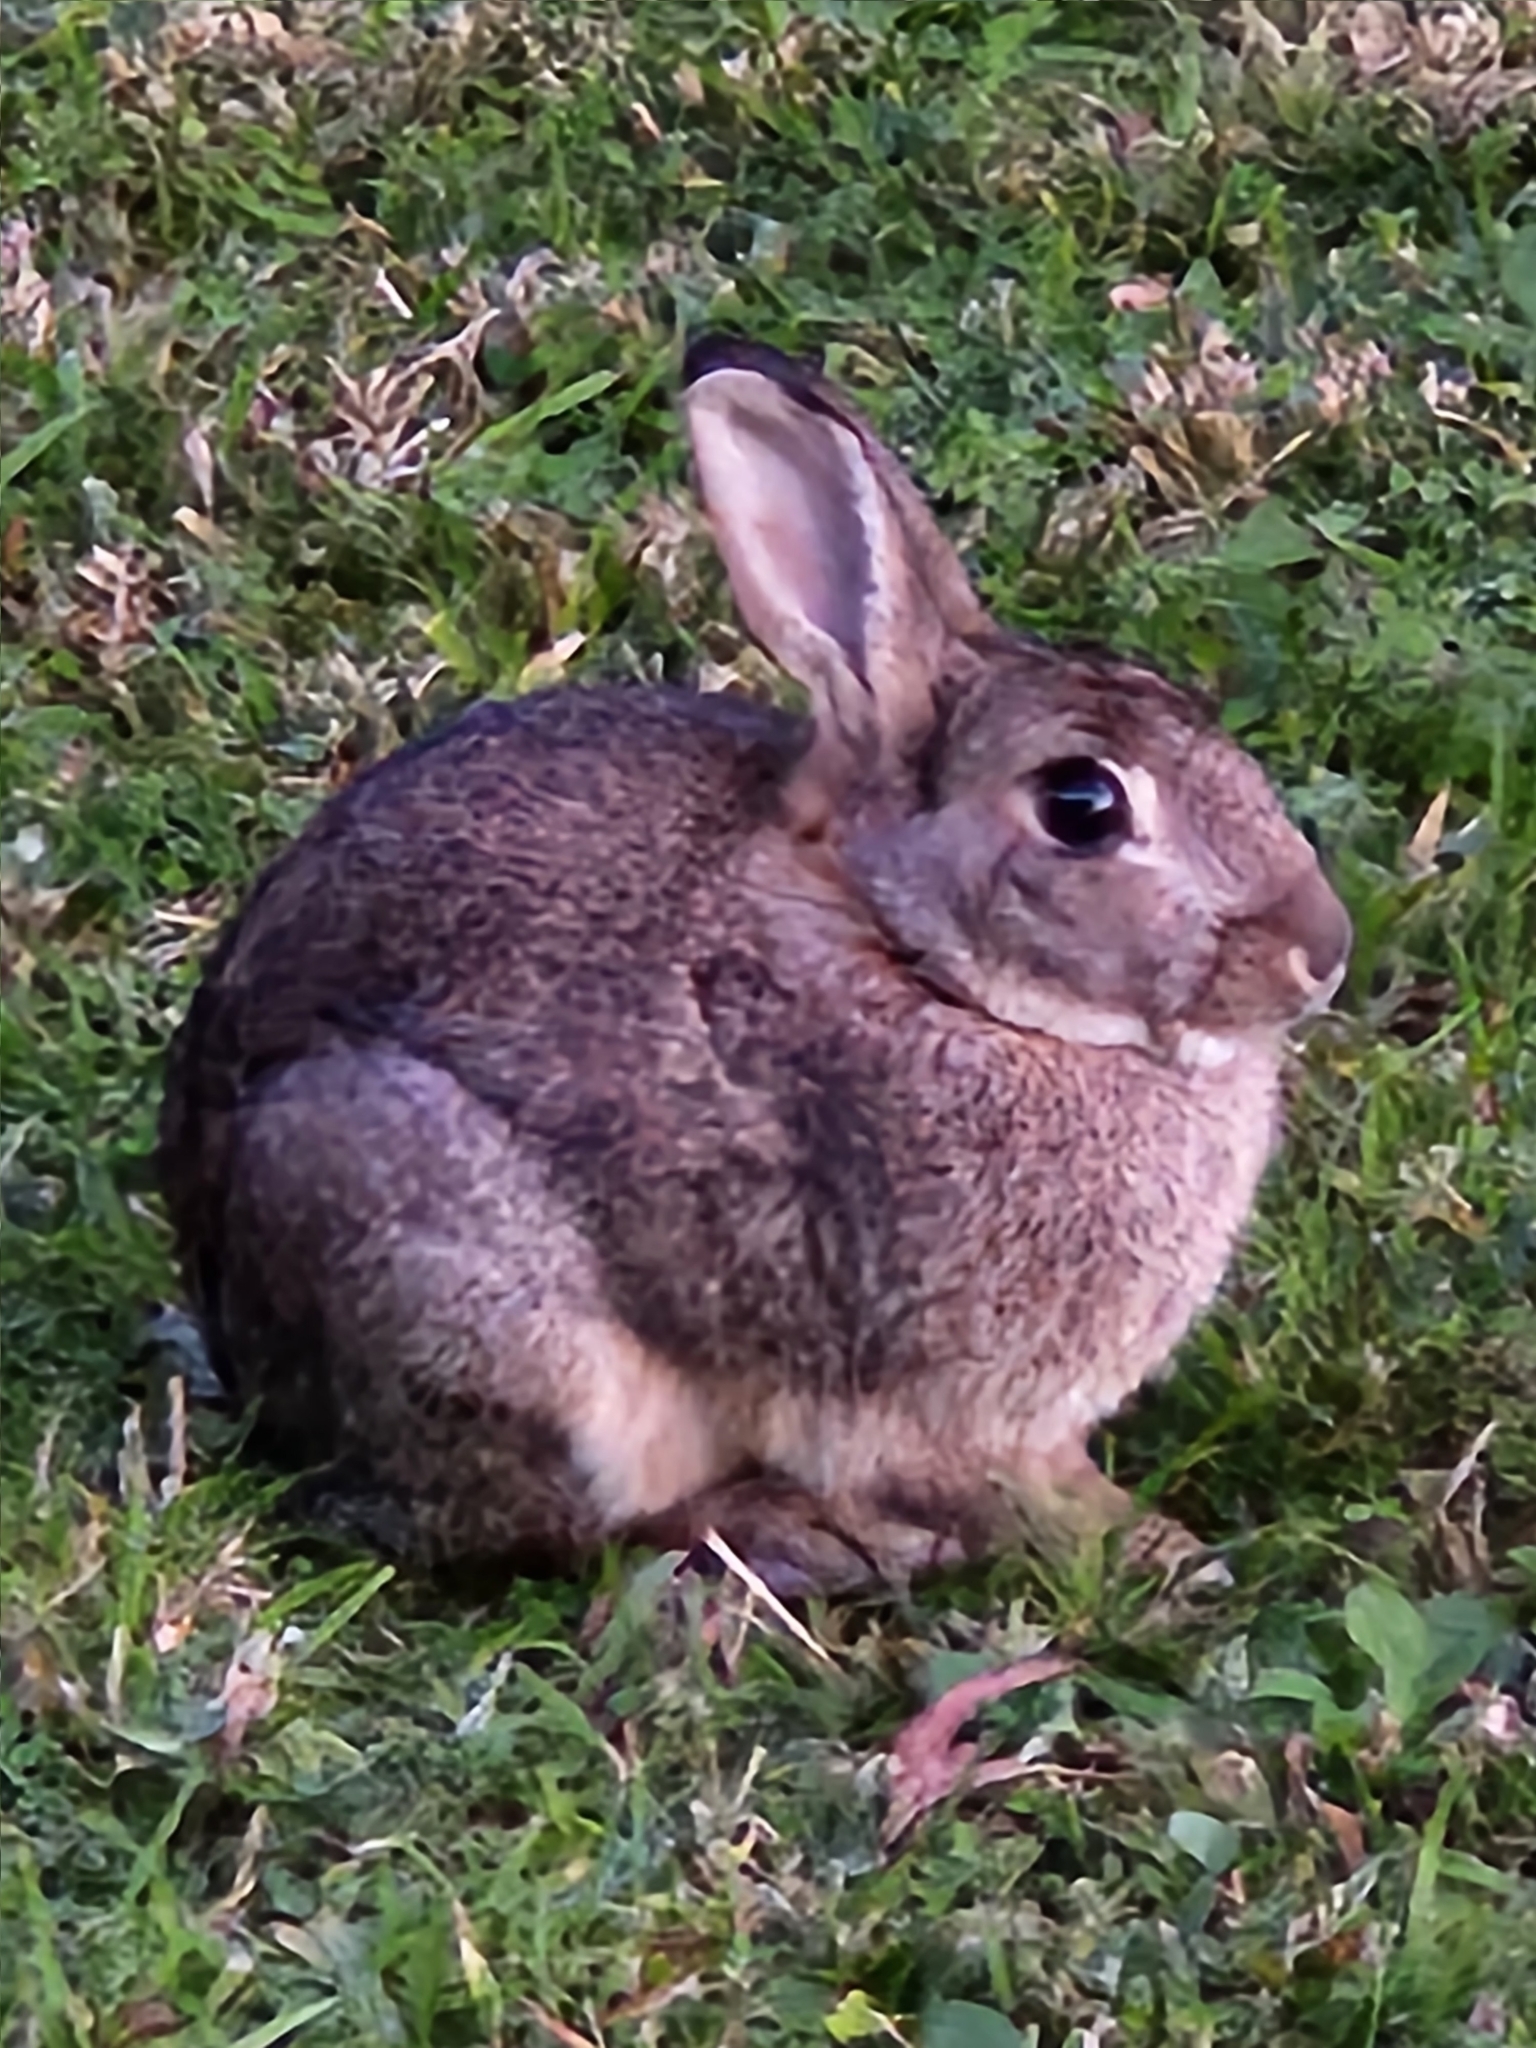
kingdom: Animalia
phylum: Chordata
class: Mammalia
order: Lagomorpha
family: Leporidae
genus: Oryctolagus
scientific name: Oryctolagus cuniculus
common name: European rabbit
